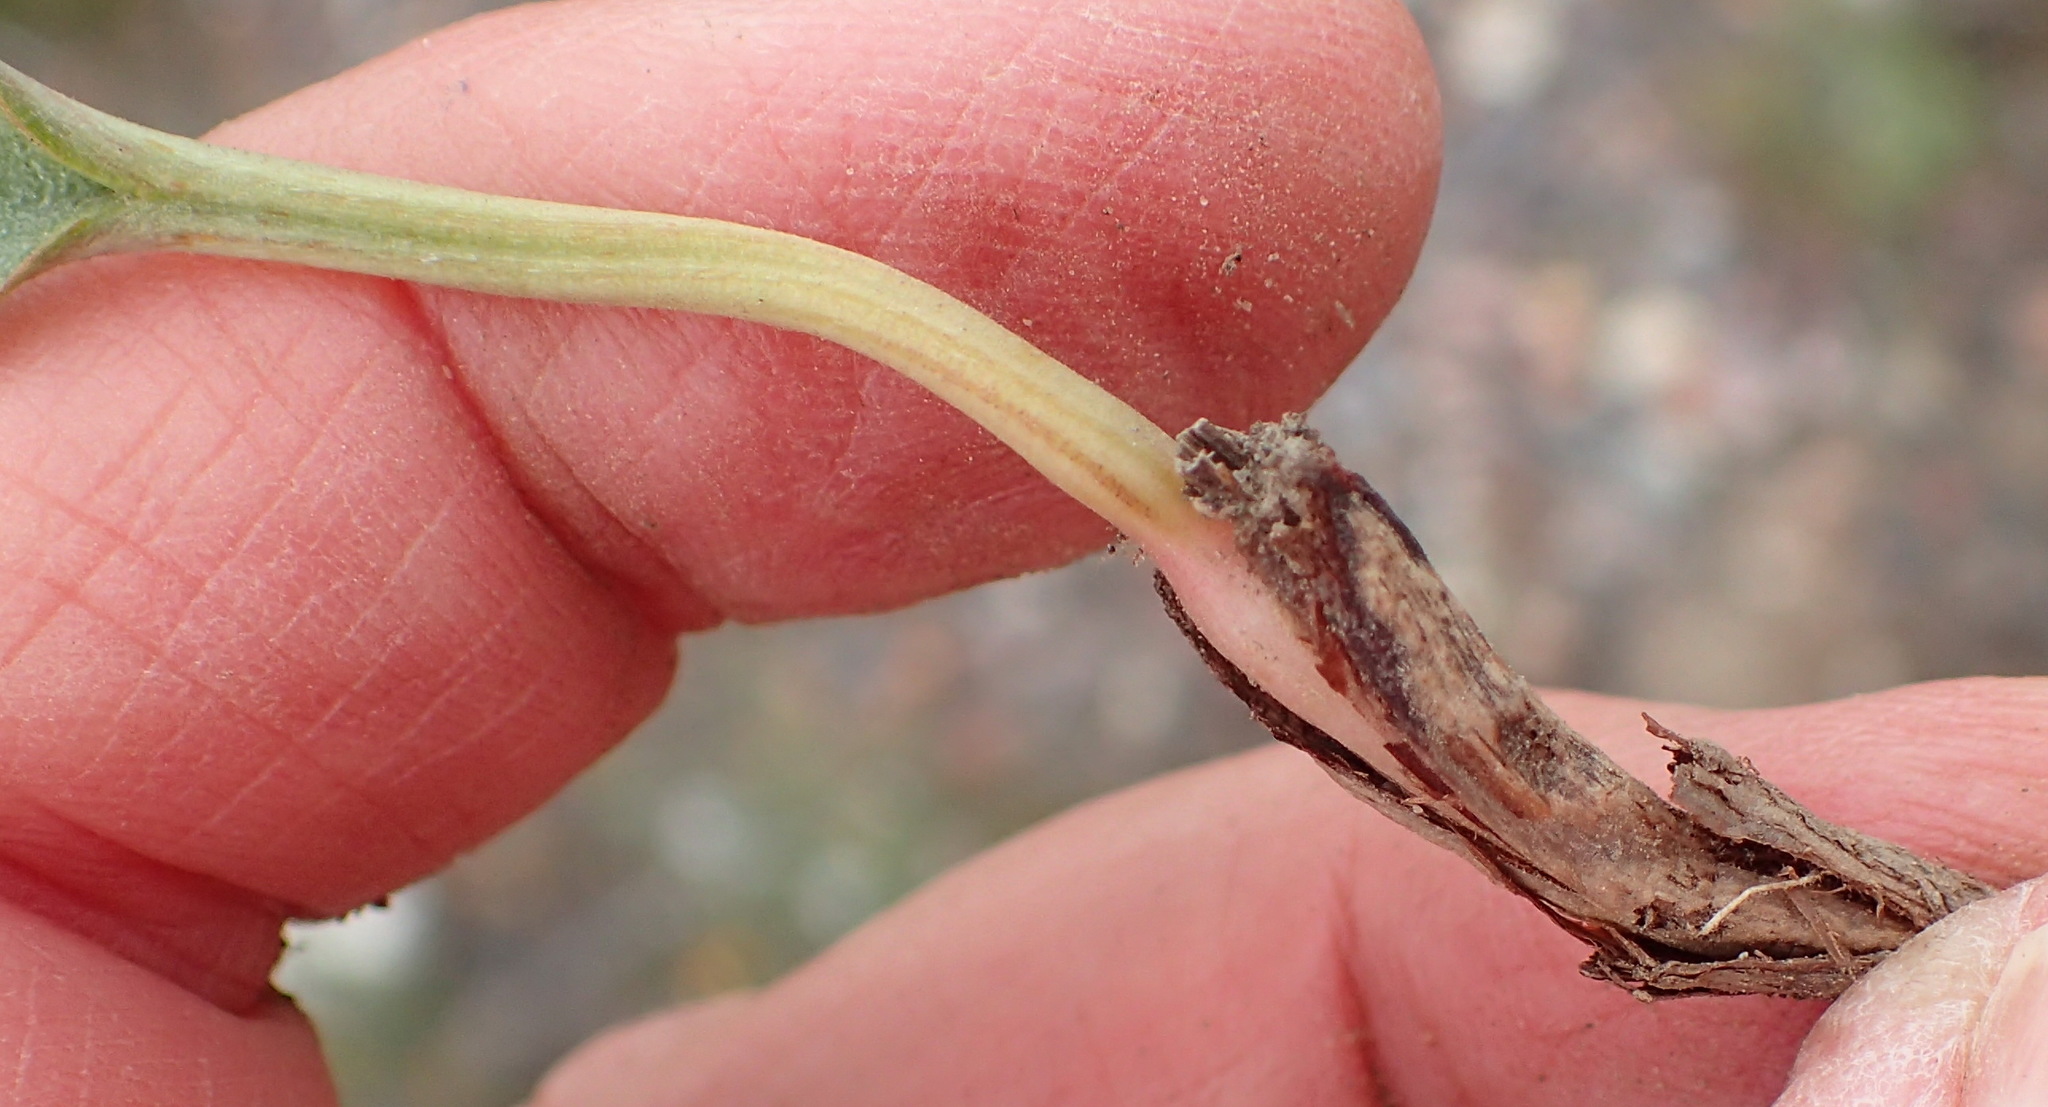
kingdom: Plantae
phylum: Tracheophyta
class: Liliopsida
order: Asparagales
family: Asparagaceae
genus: Eriospermum
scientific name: Eriospermum exile
